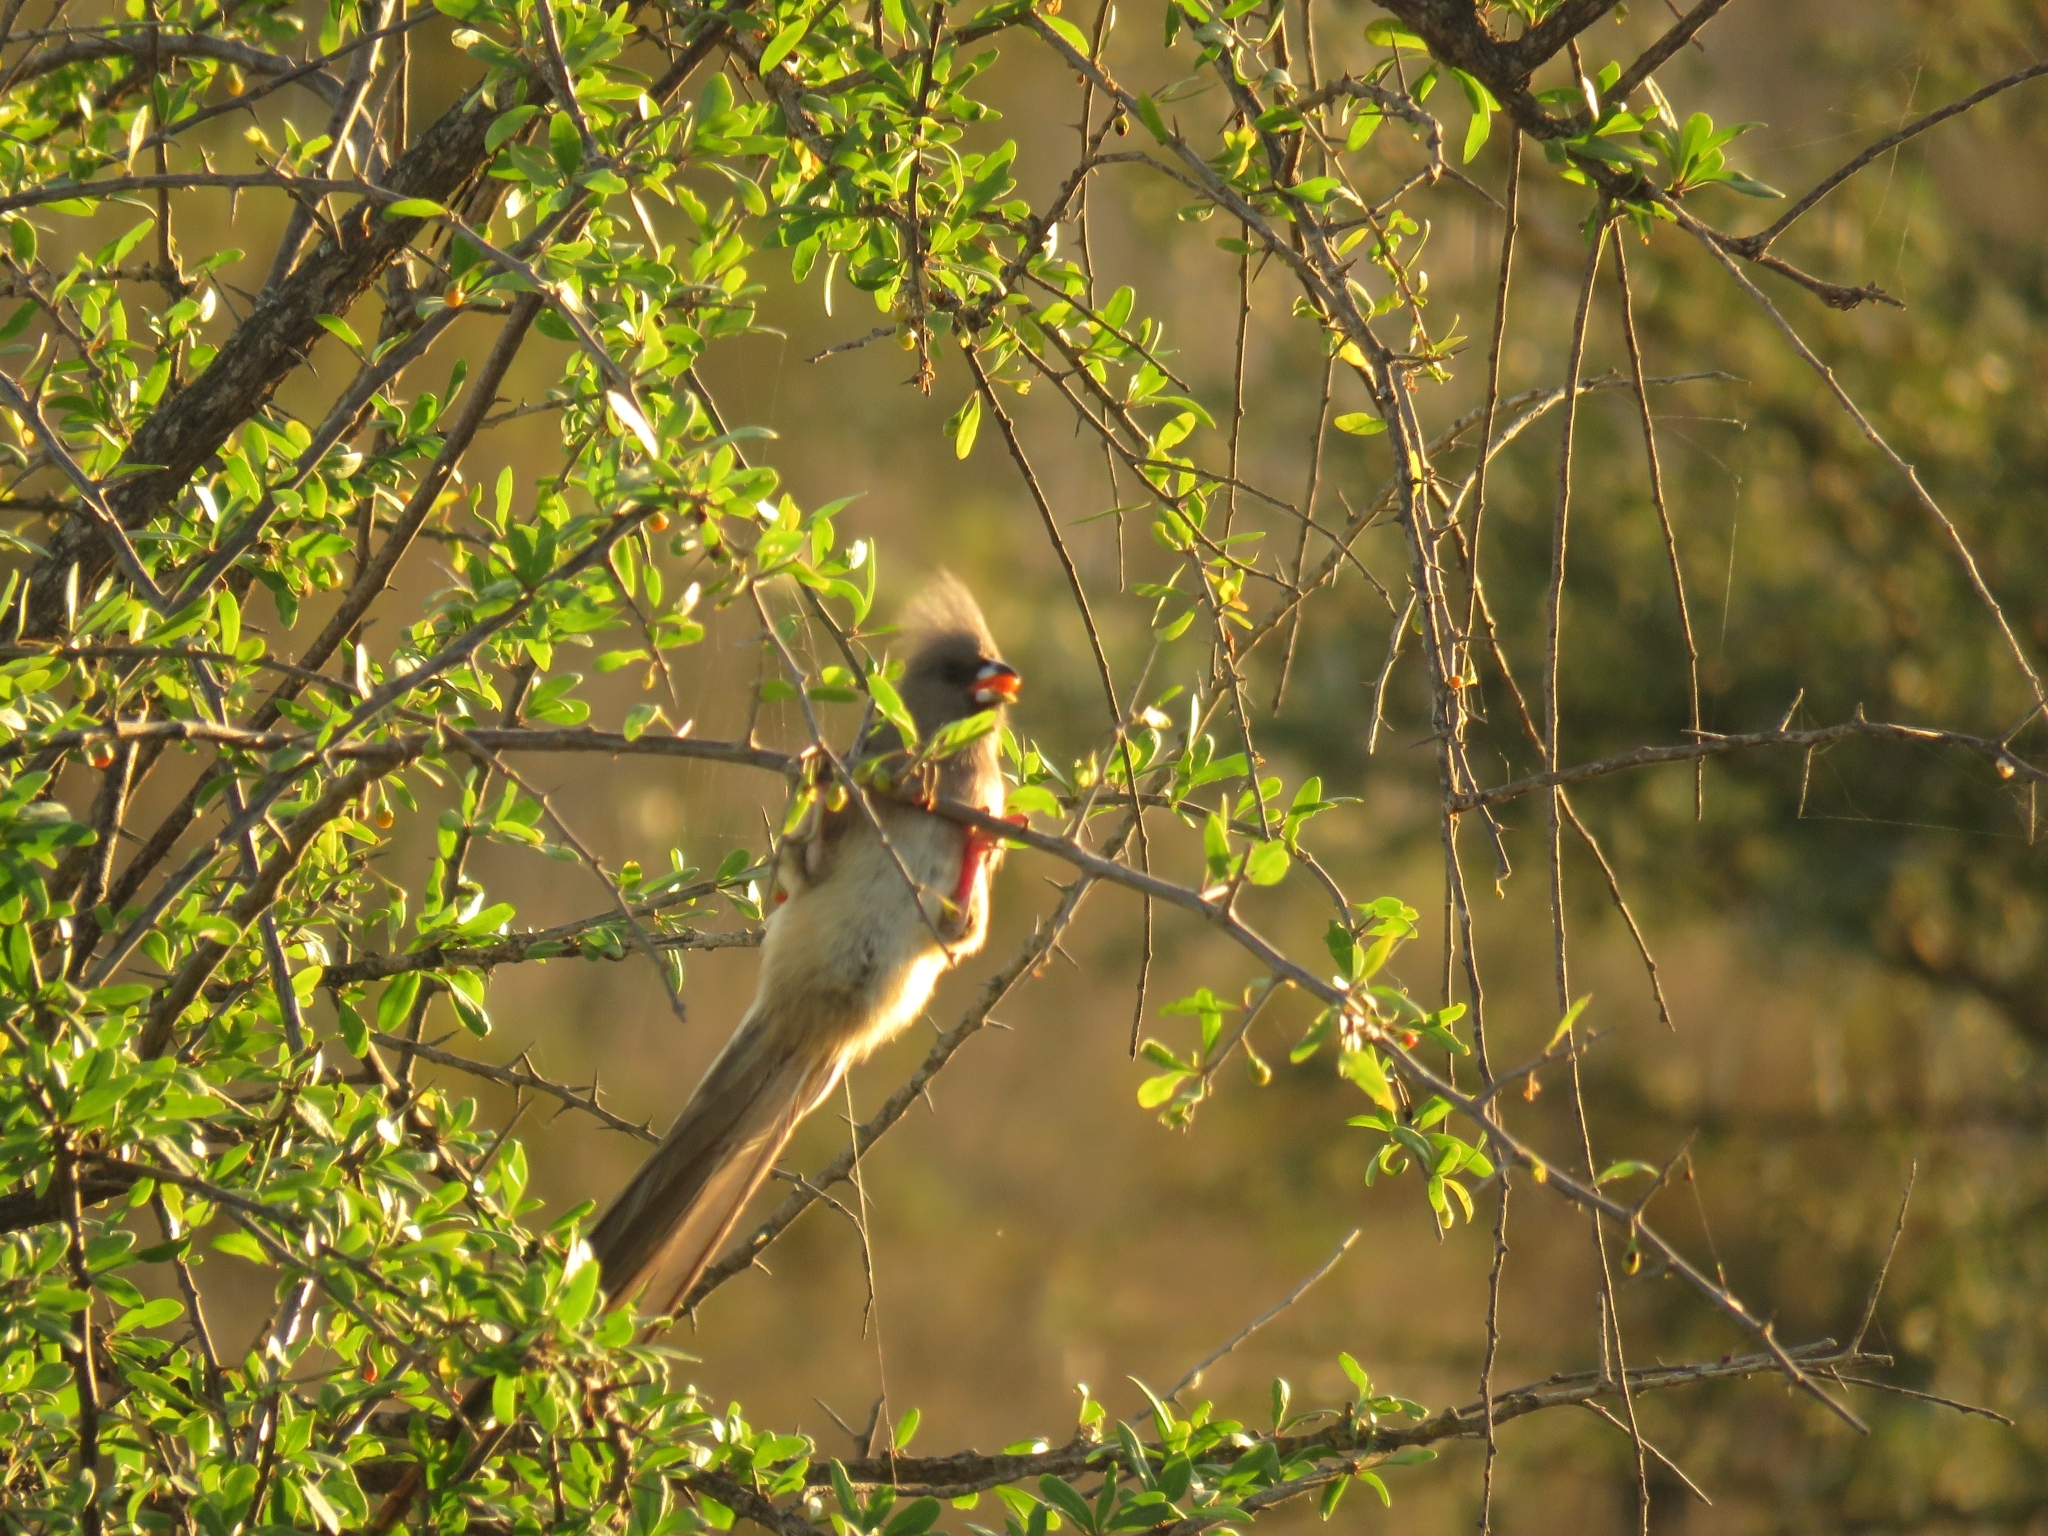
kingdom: Animalia
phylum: Chordata
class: Aves
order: Coliiformes
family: Coliidae
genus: Colius
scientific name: Colius colius
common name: White-backed mousebird
